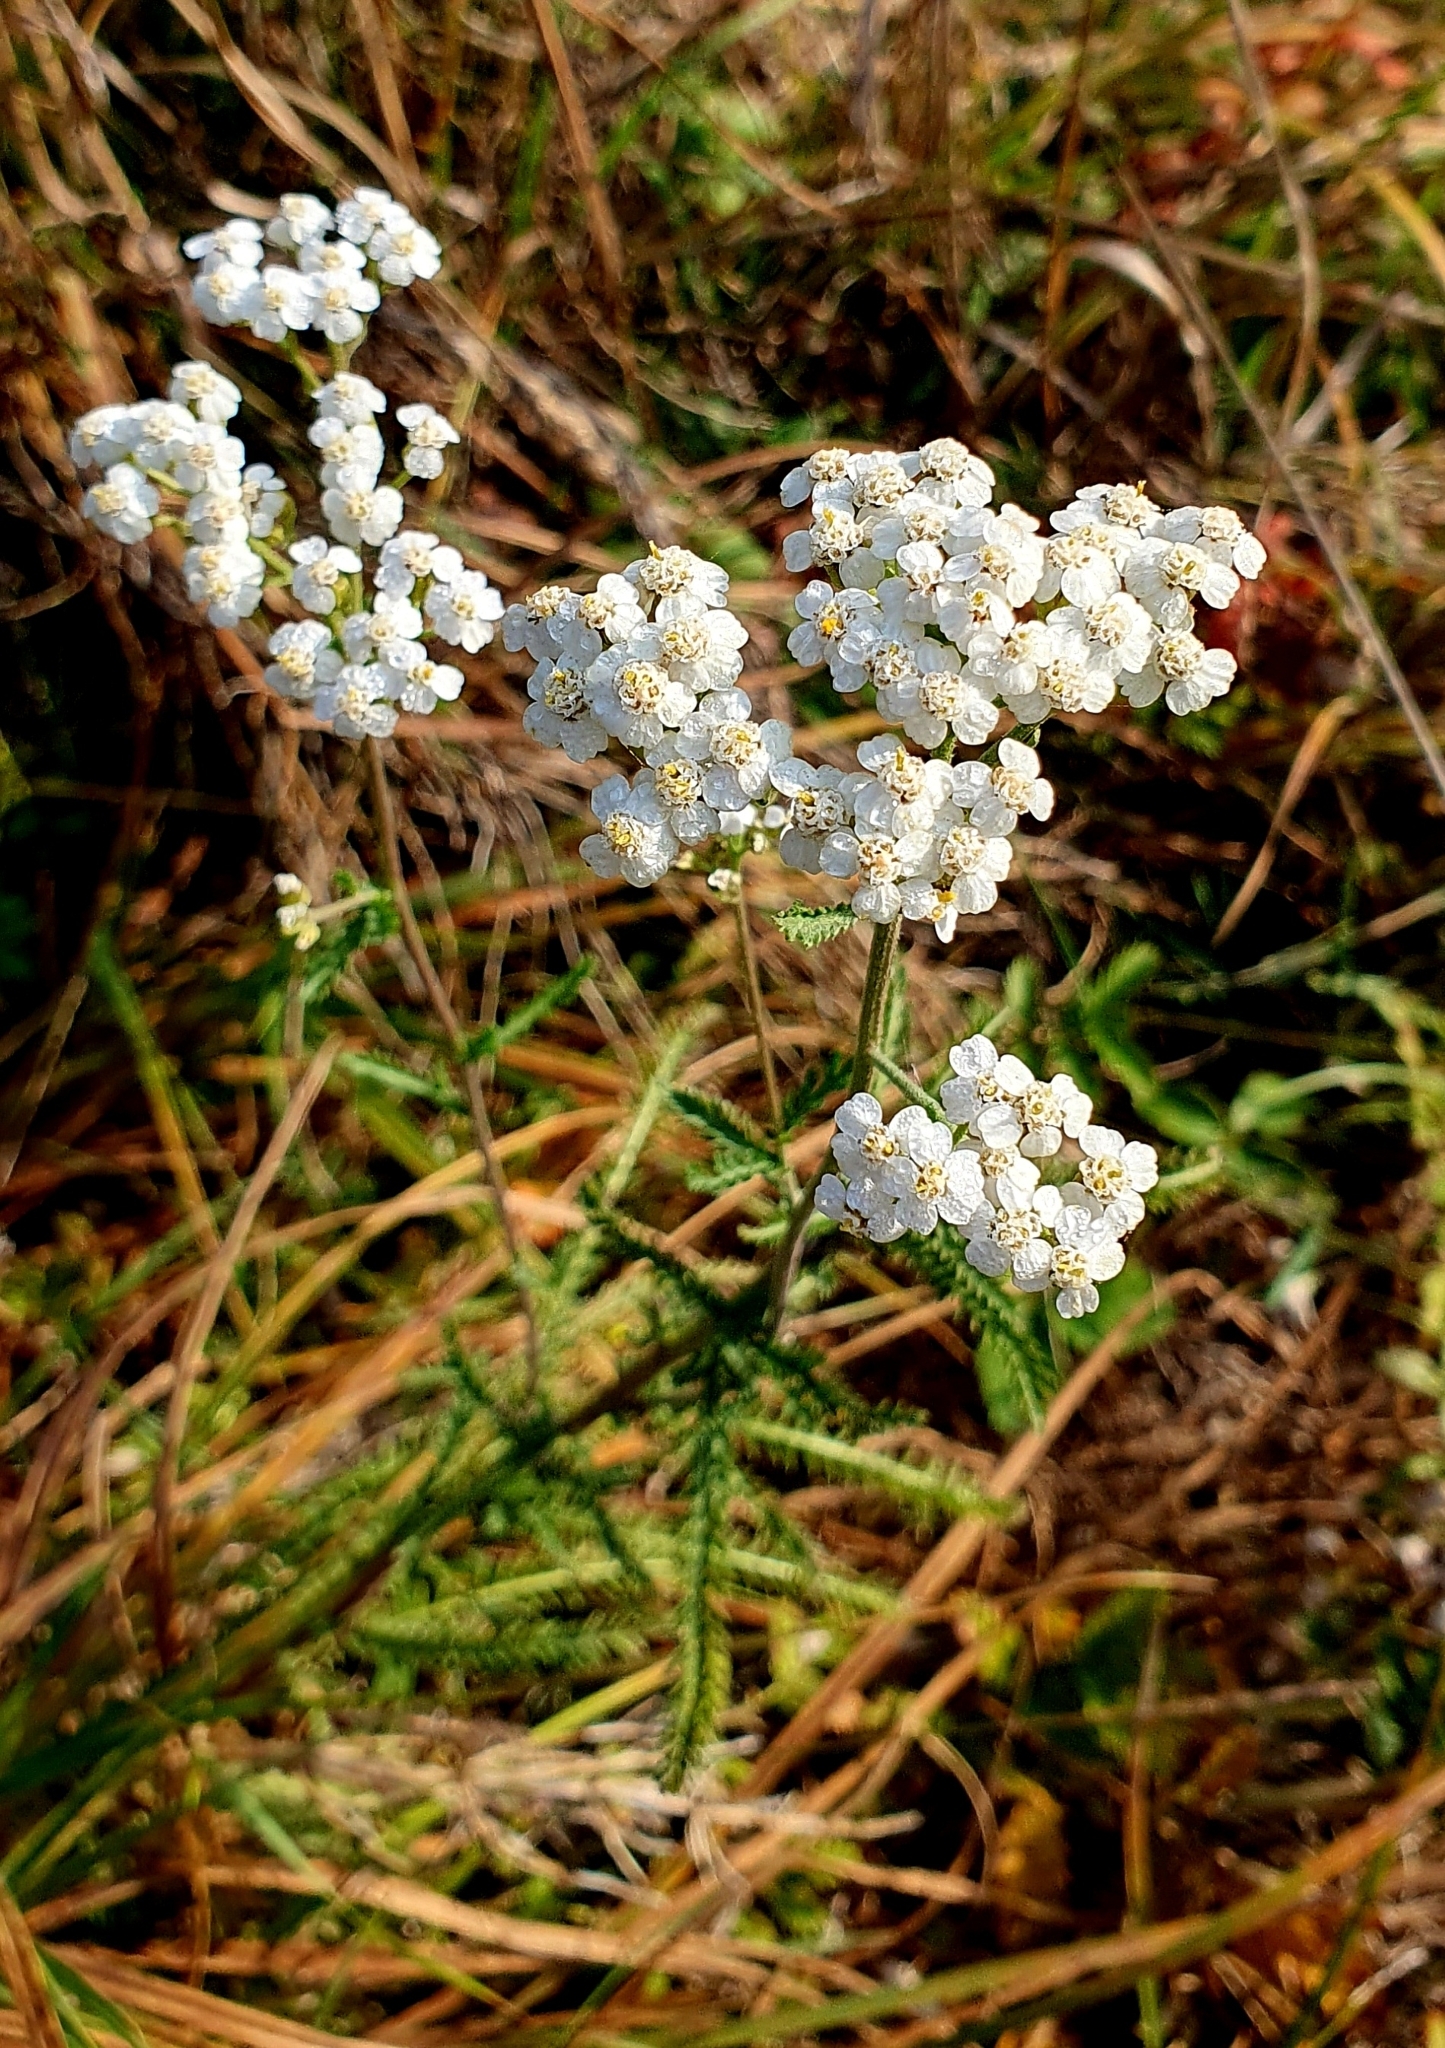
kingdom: Plantae
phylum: Tracheophyta
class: Magnoliopsida
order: Asterales
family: Asteraceae
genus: Achillea
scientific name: Achillea setacea
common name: Bristly yarrow
